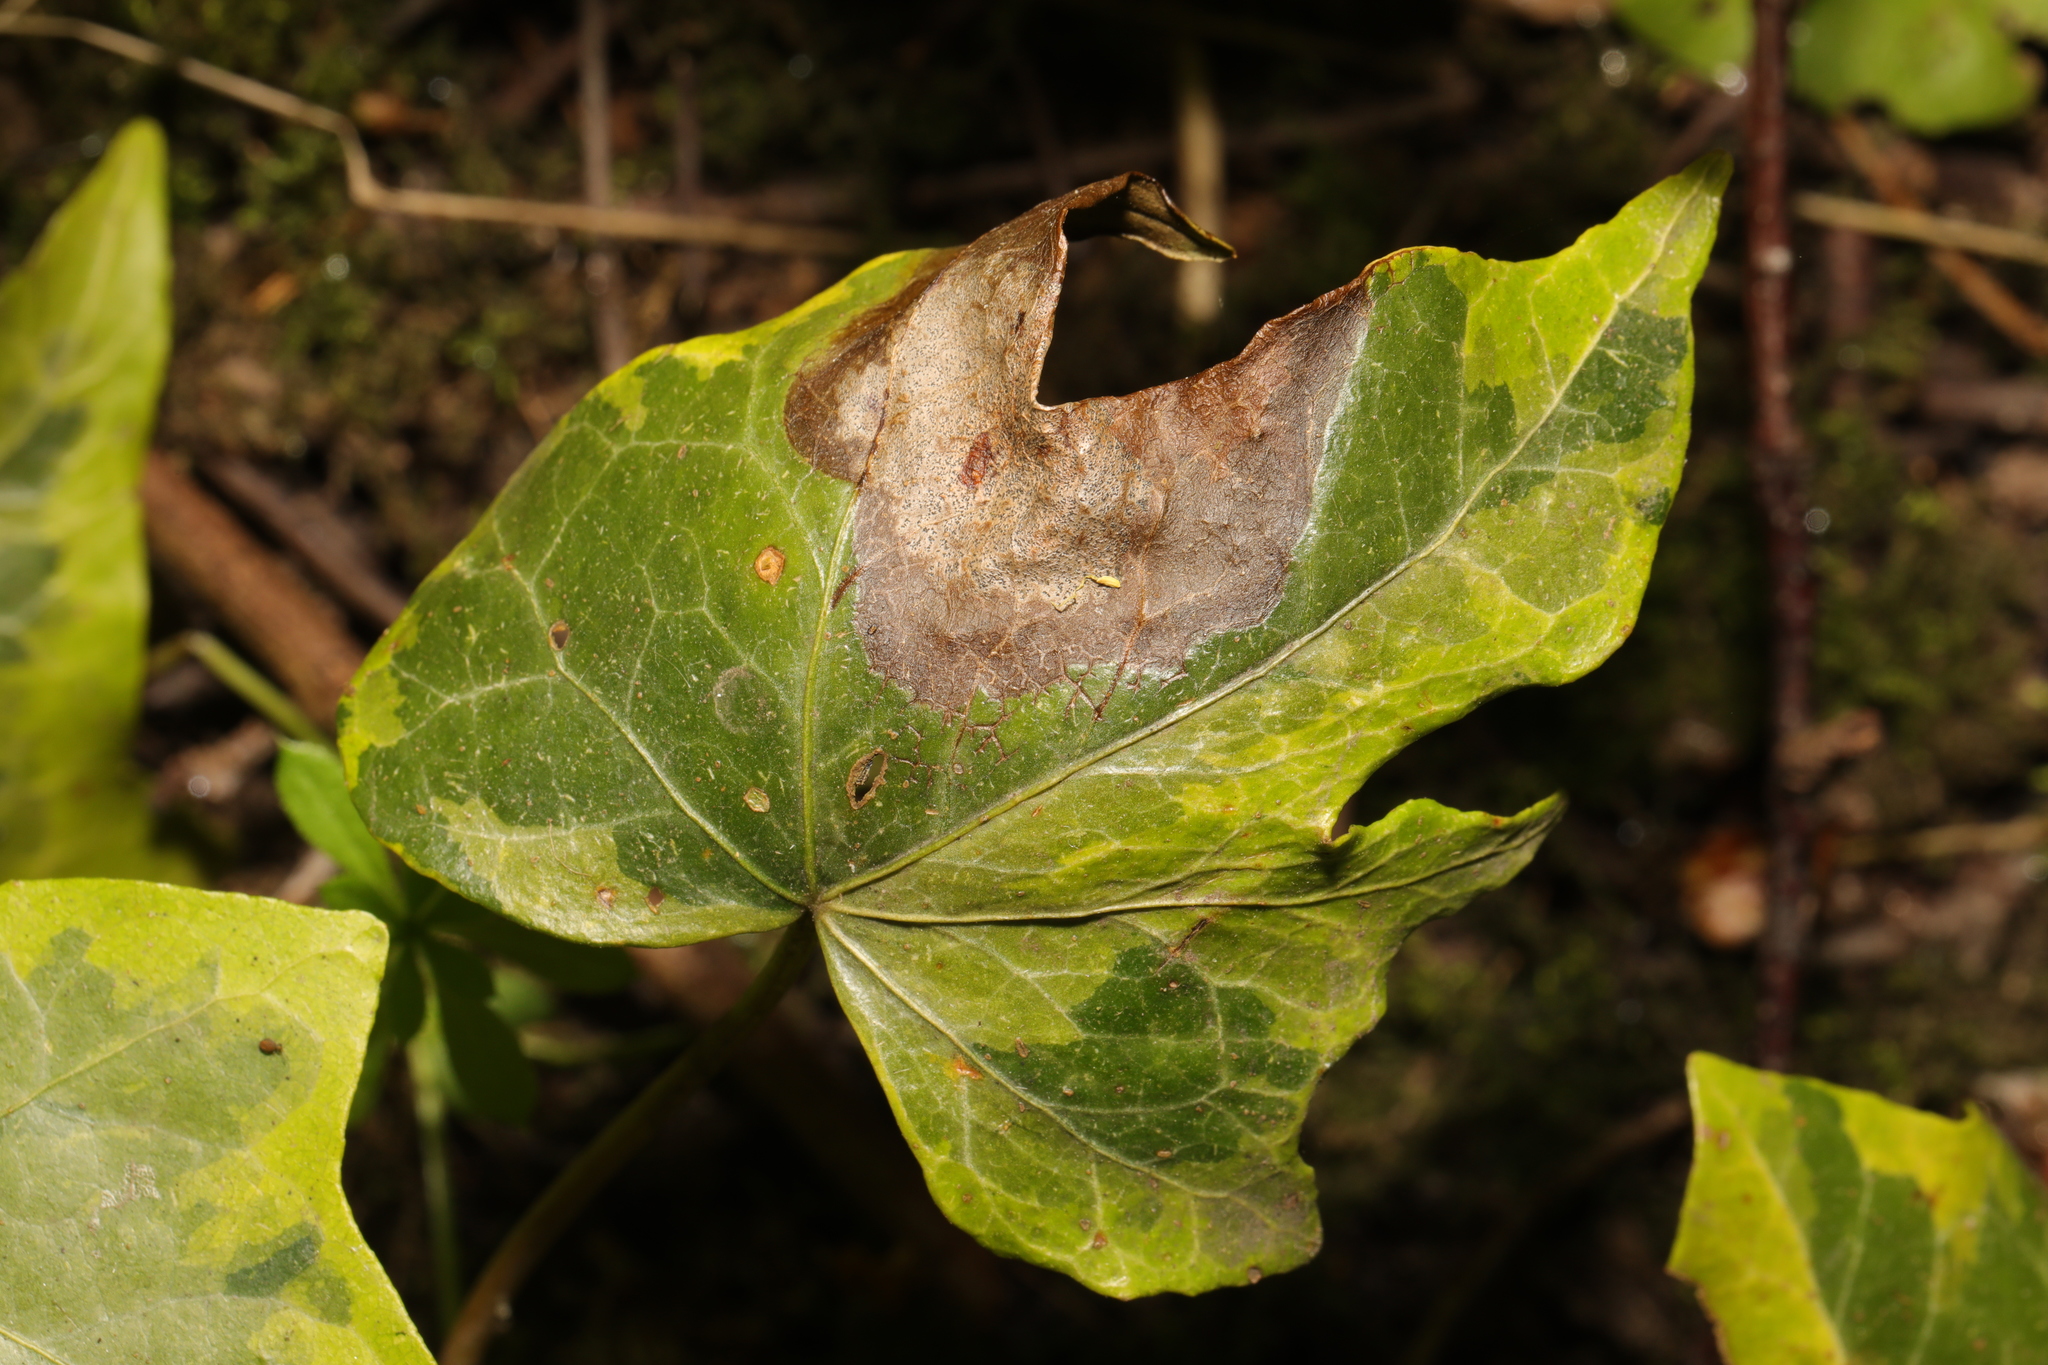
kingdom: Fungi
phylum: Ascomycota
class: Dothideomycetes
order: Pleosporales
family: Didymellaceae
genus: Boeremia
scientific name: Boeremia hedericola
